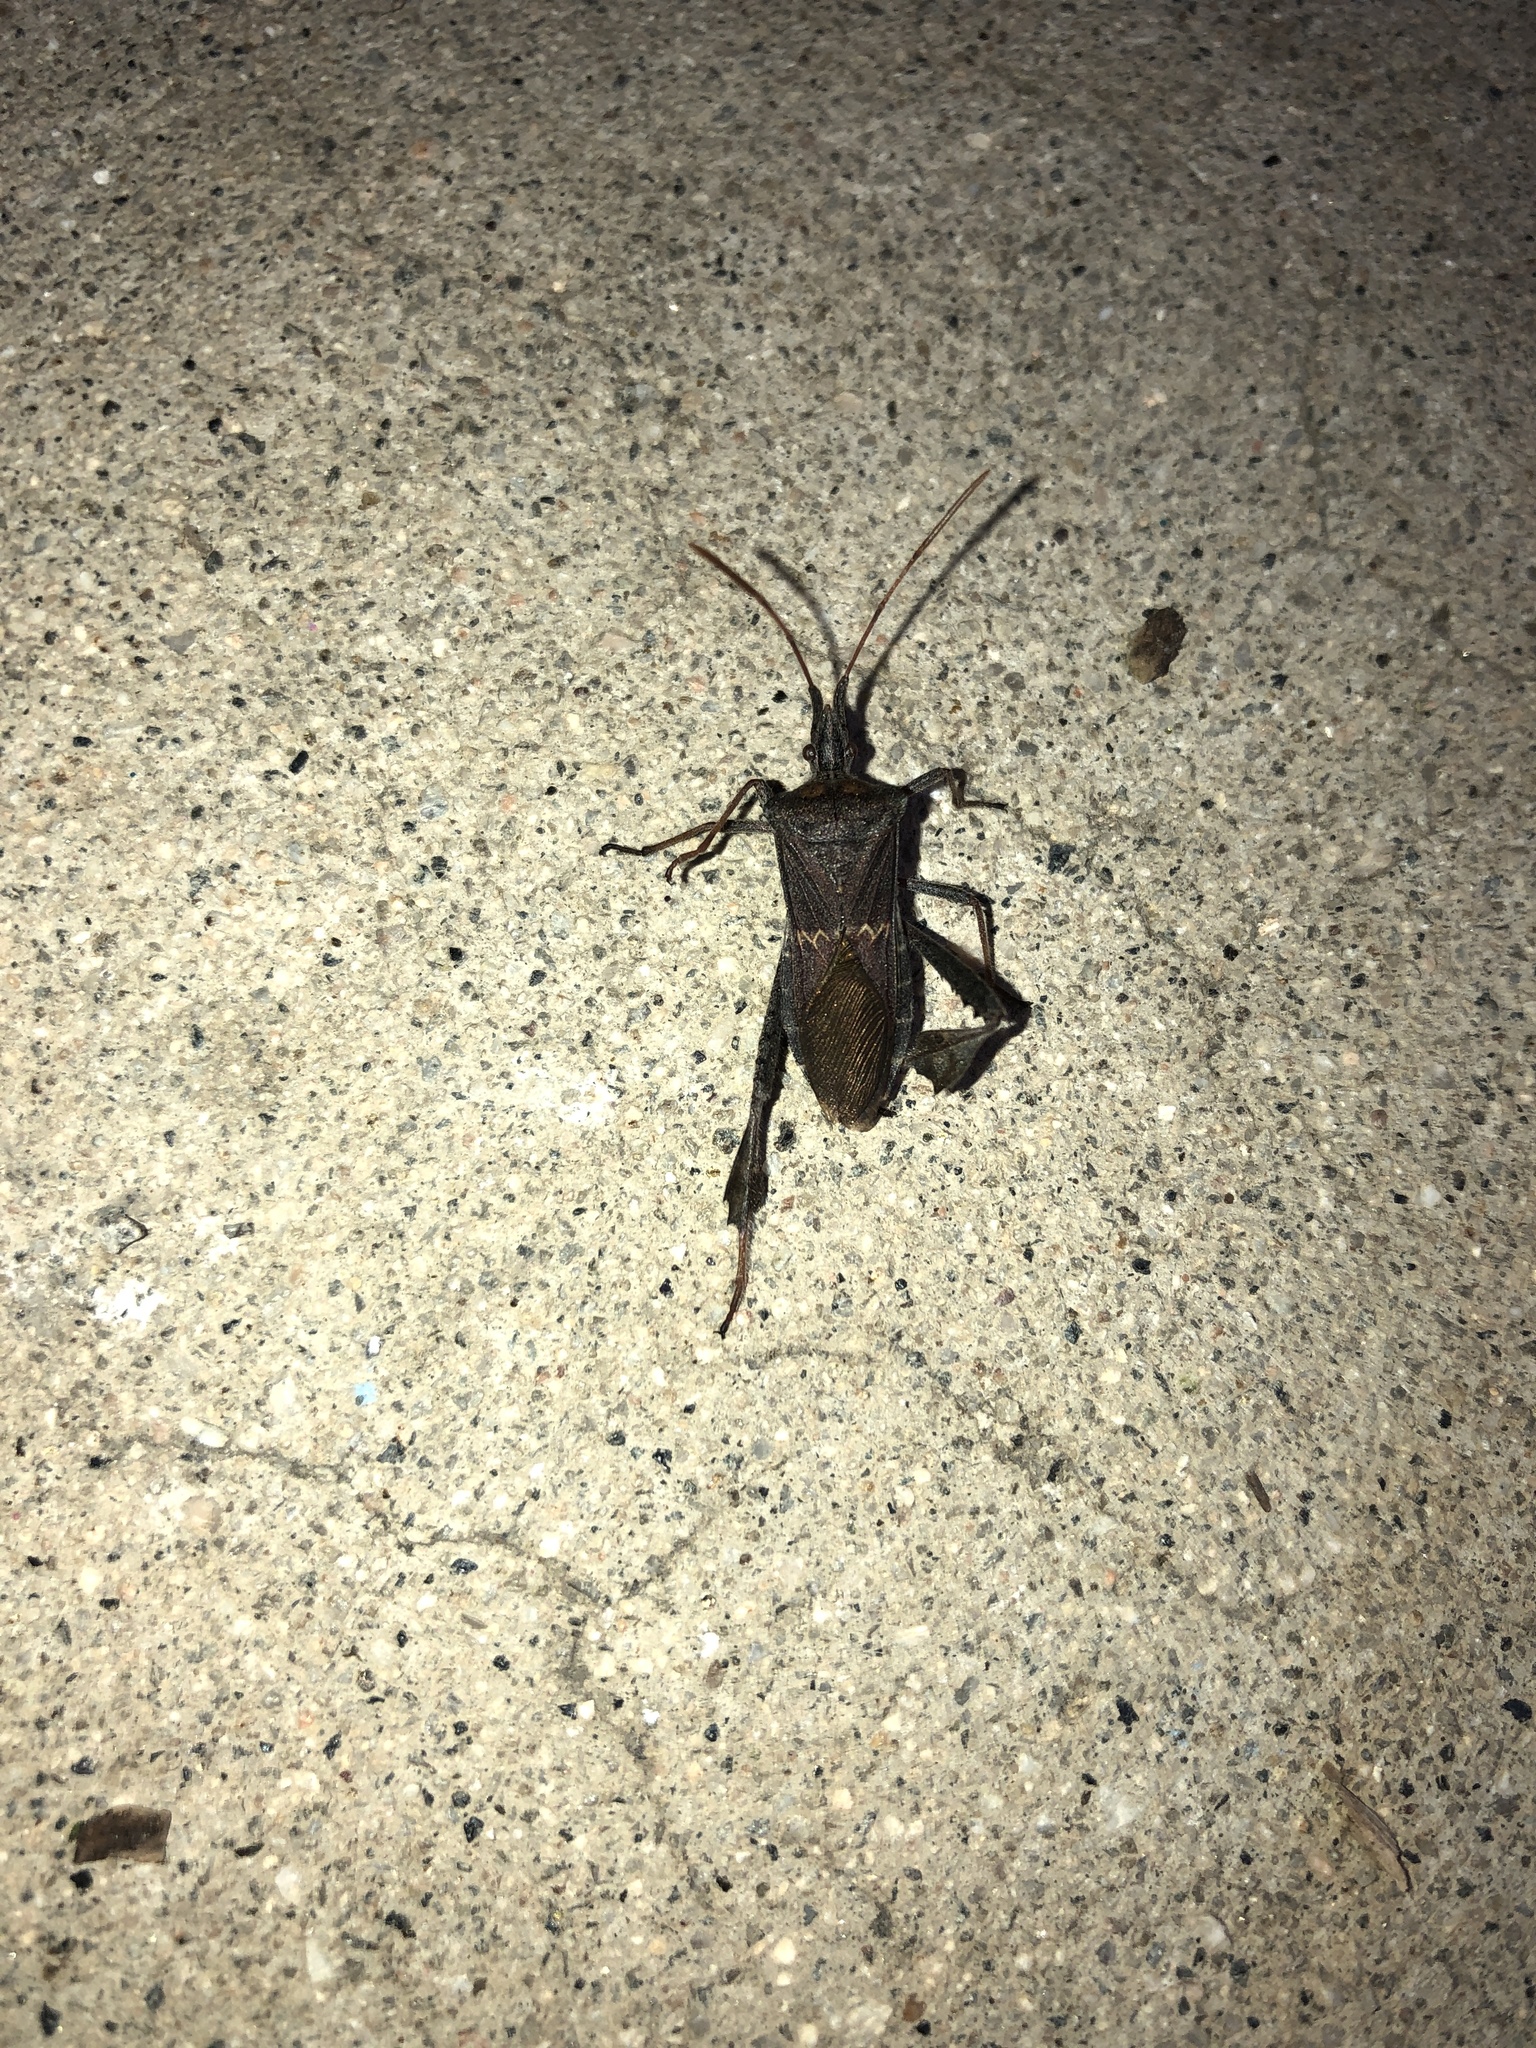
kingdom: Animalia
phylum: Arthropoda
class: Insecta
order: Hemiptera
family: Coreidae
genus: Leptoglossus
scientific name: Leptoglossus zonatus
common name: Large-legged bug
